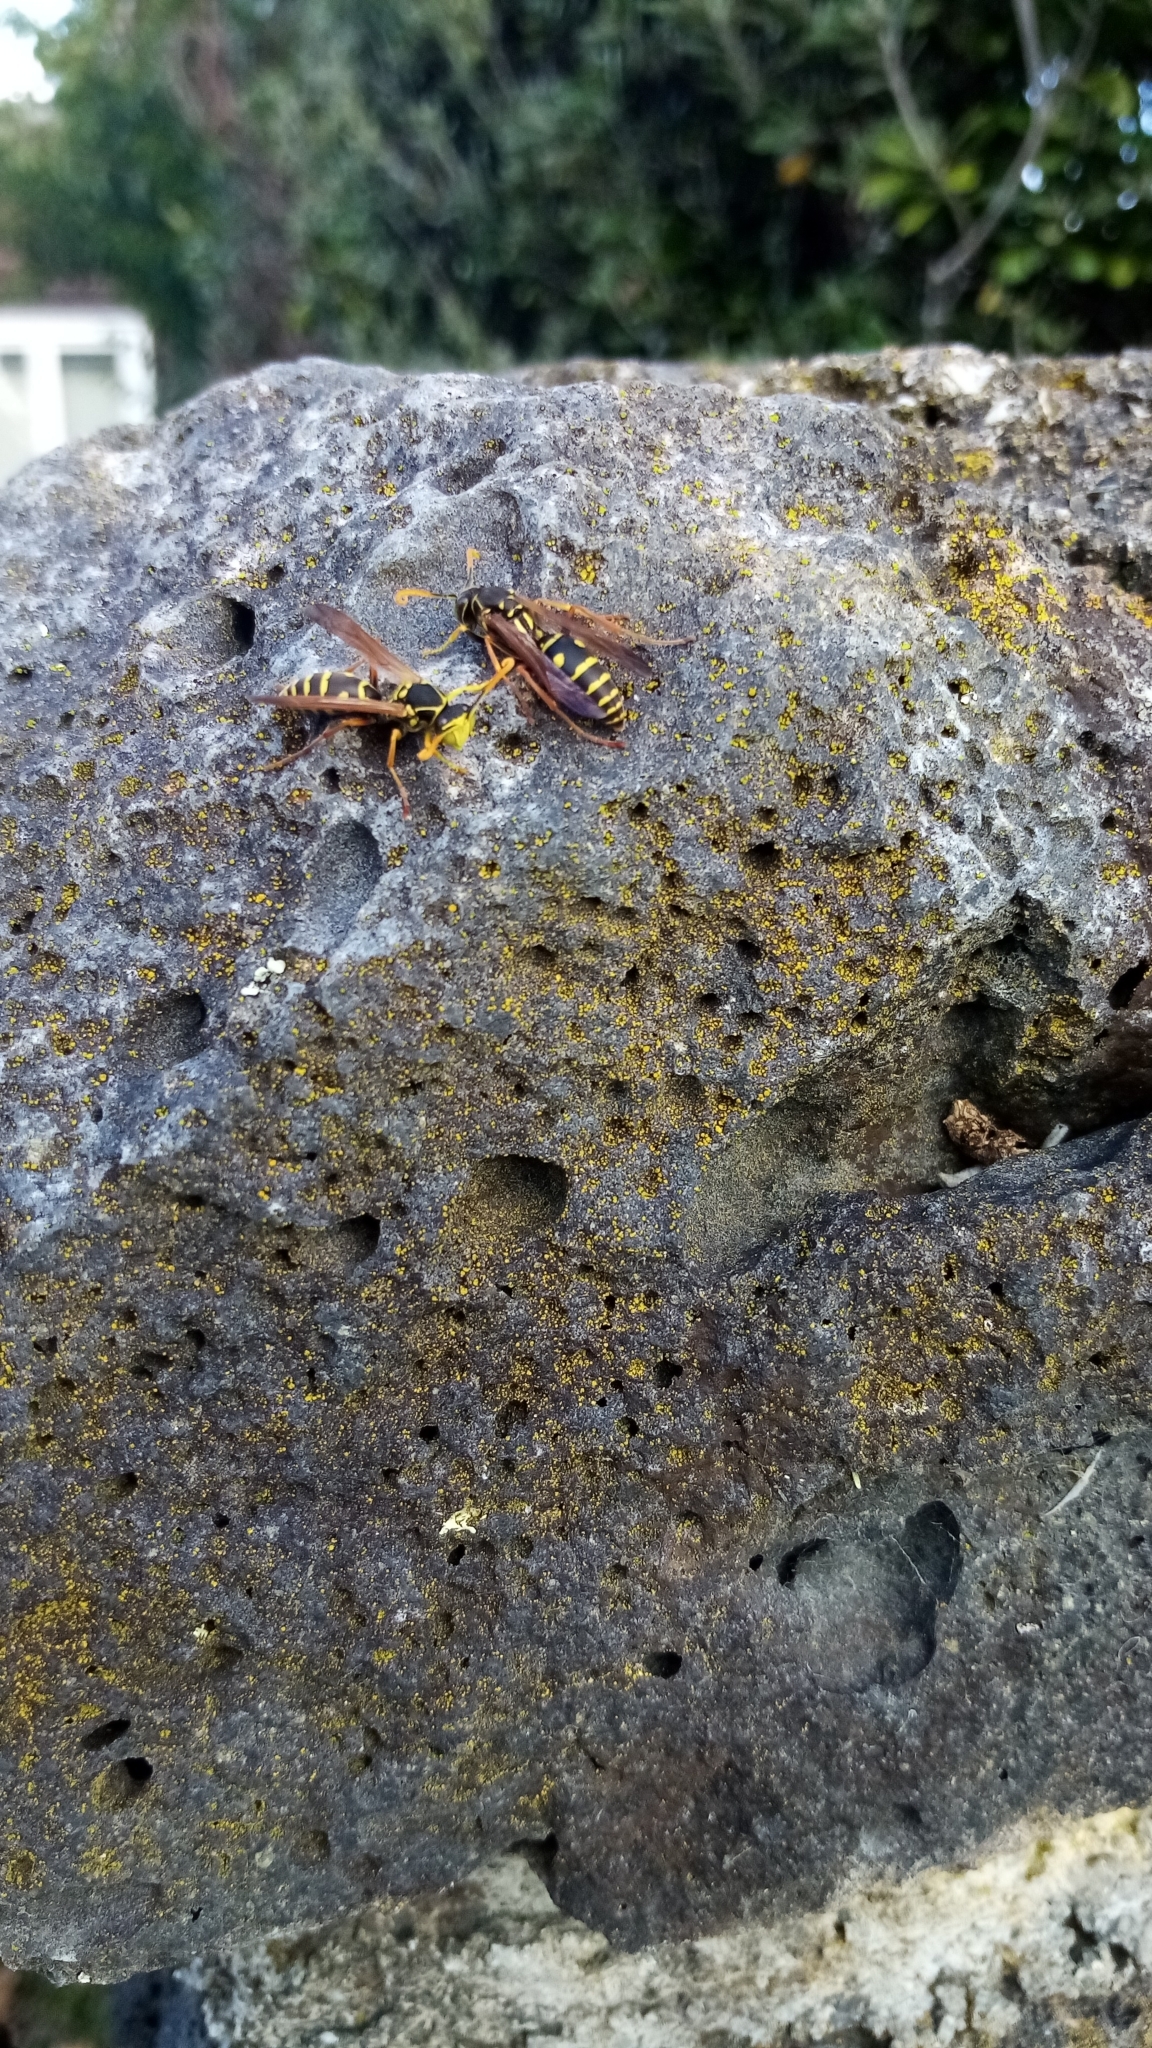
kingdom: Animalia
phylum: Arthropoda
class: Insecta
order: Hymenoptera
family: Eumenidae
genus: Polistes
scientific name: Polistes chinensis
